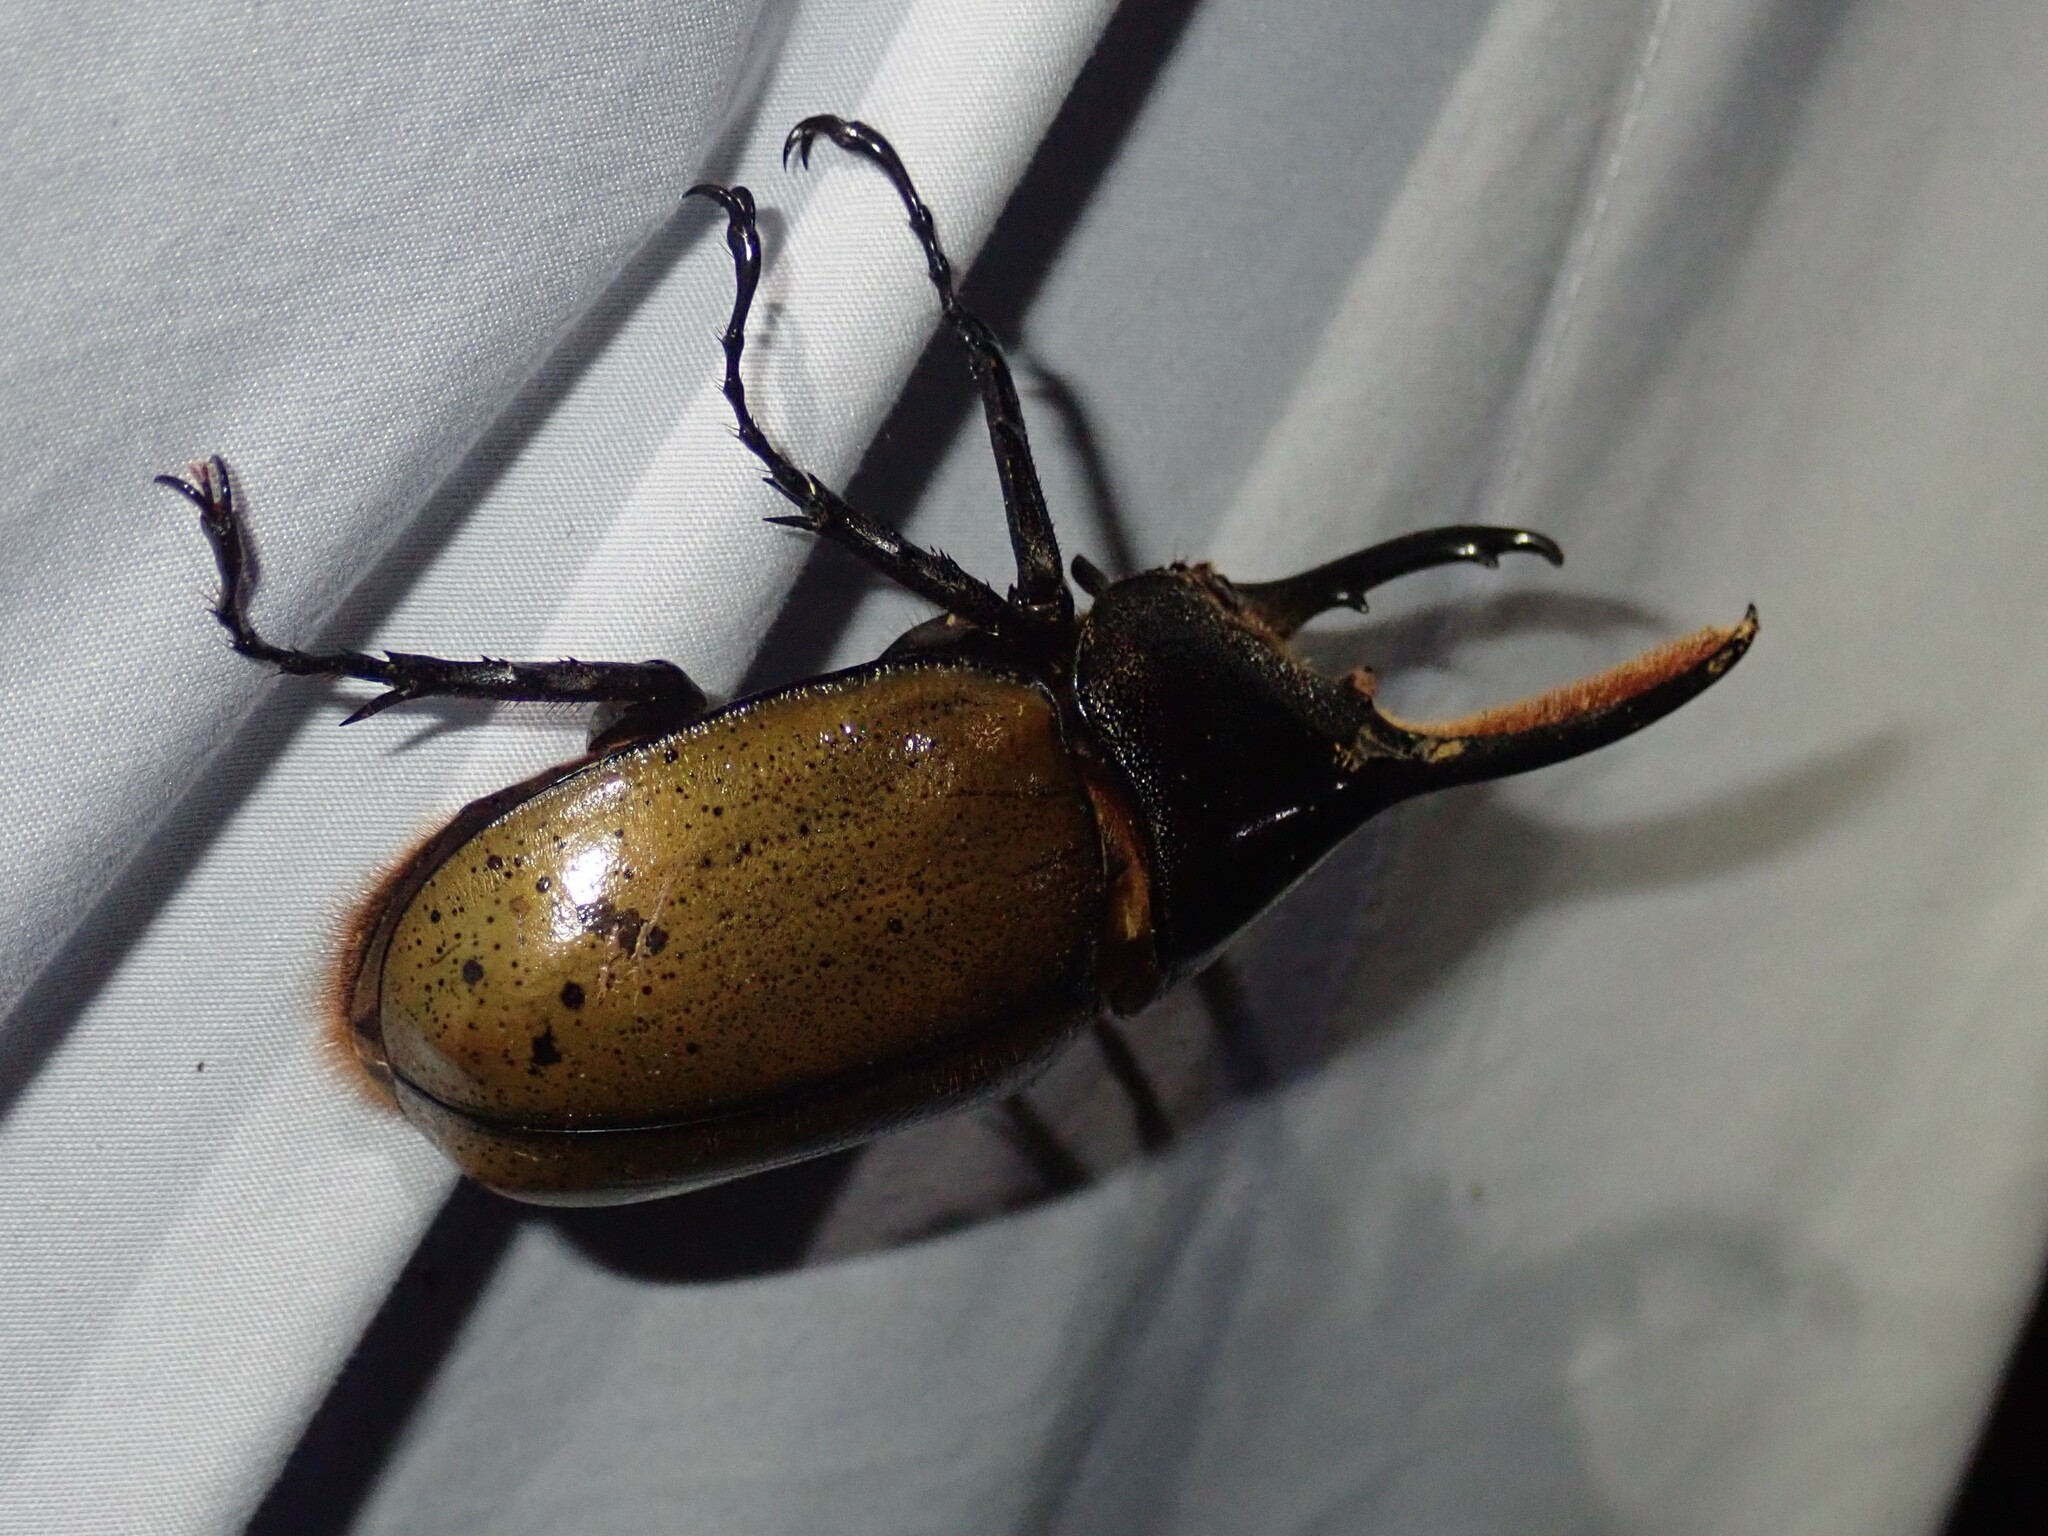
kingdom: Animalia
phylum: Arthropoda
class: Insecta
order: Coleoptera
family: Scarabaeidae
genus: Dynastes
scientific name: Dynastes
